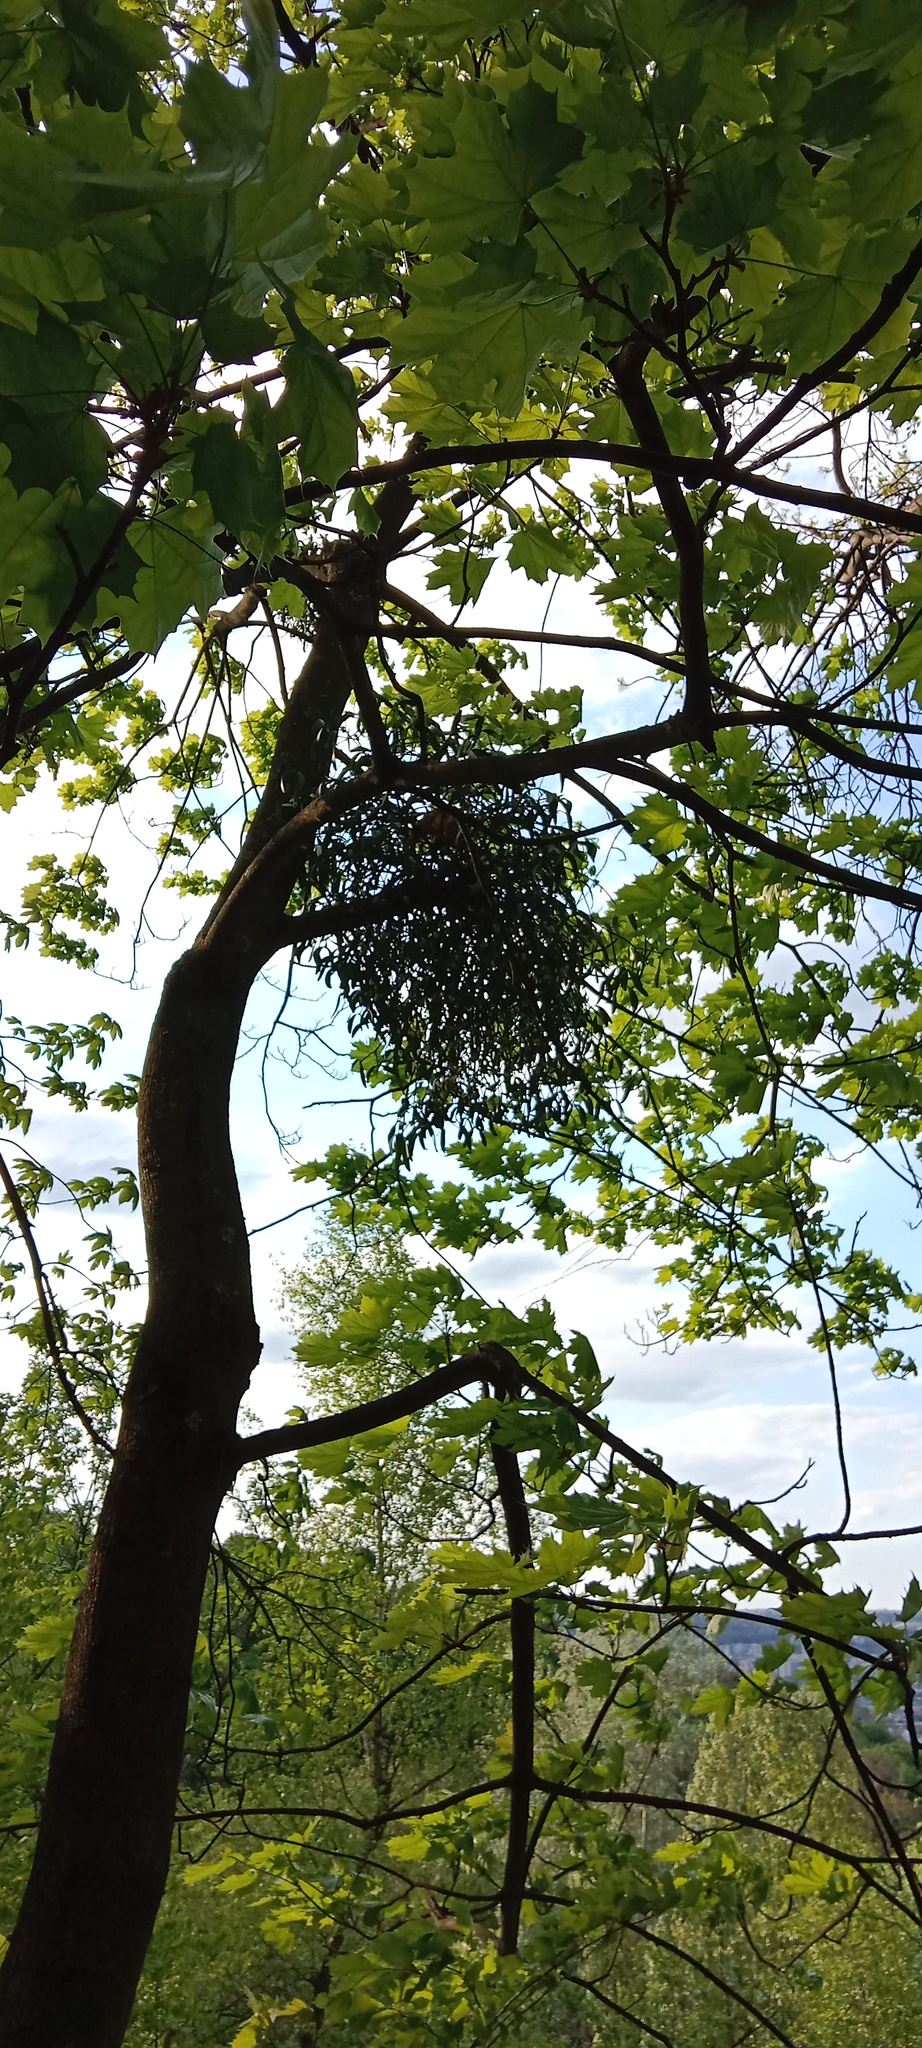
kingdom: Plantae
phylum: Tracheophyta
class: Magnoliopsida
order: Santalales
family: Viscaceae
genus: Viscum
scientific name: Viscum album
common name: Mistletoe
